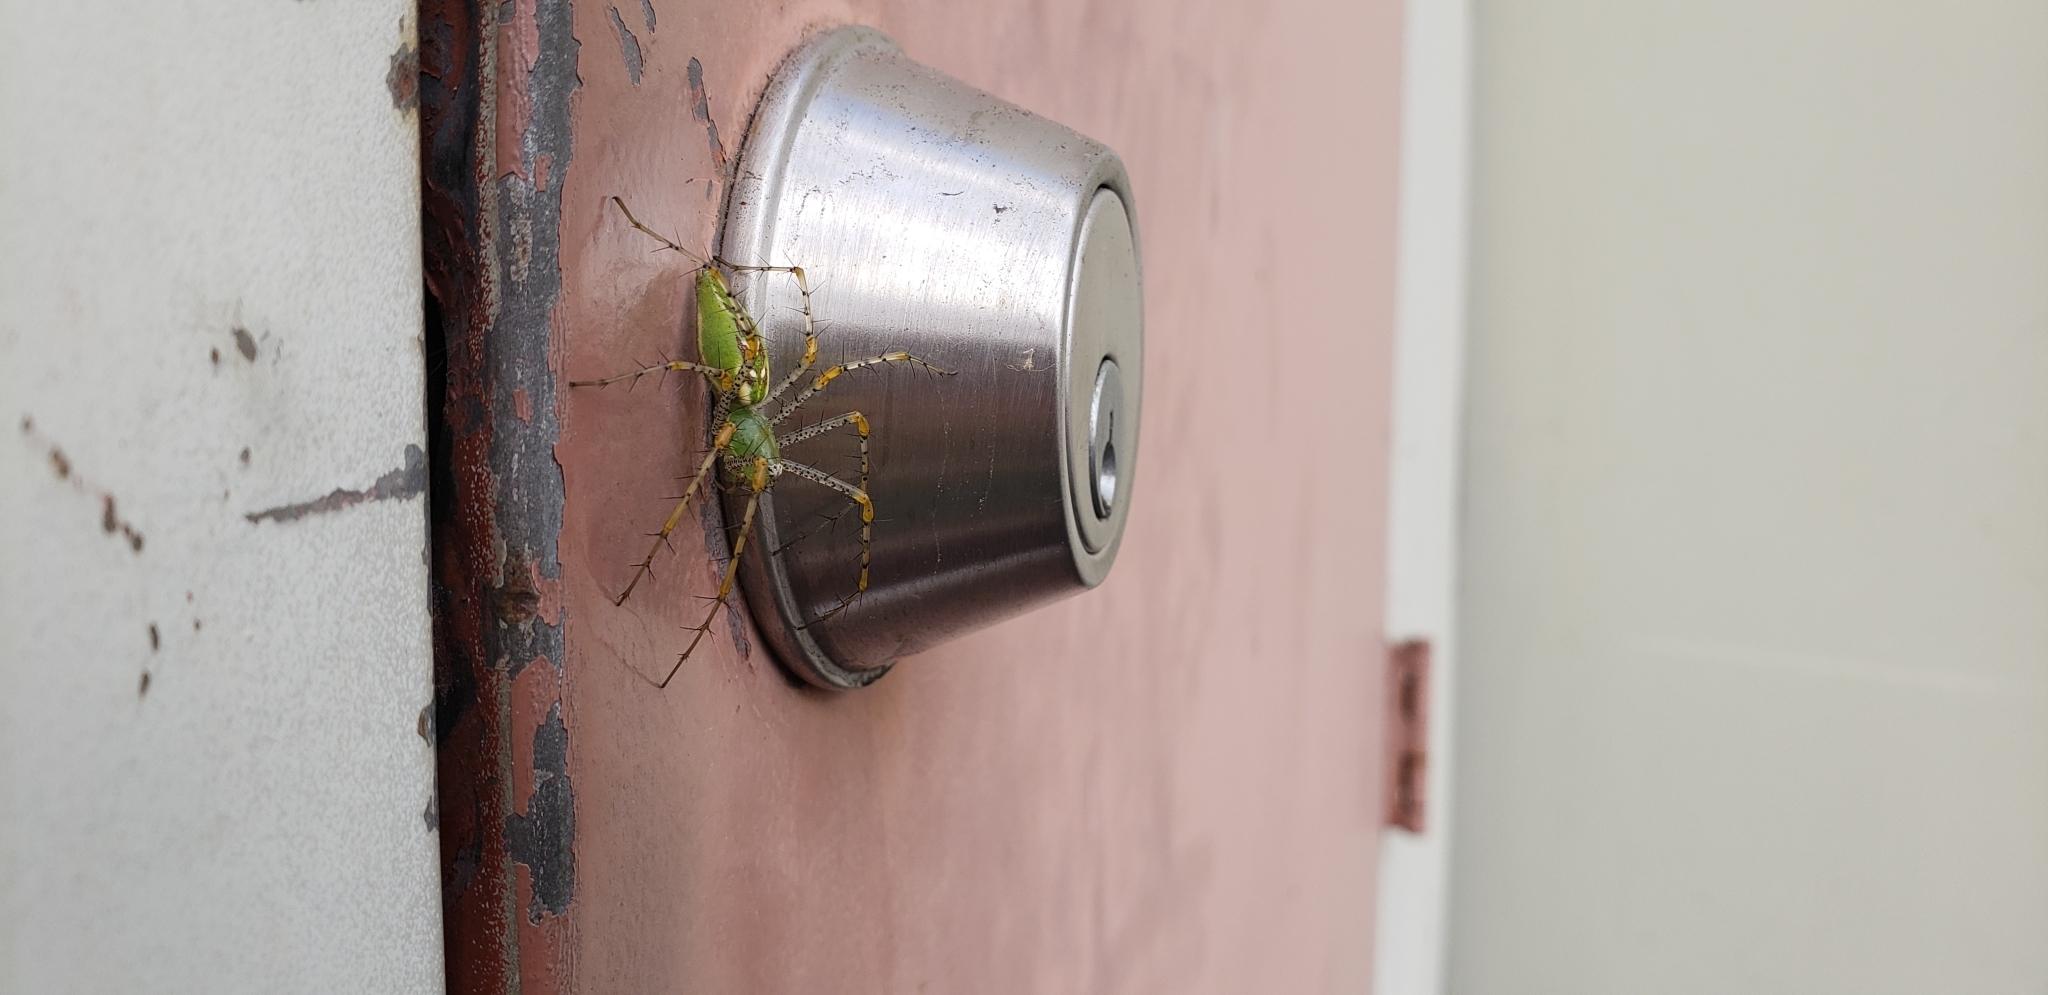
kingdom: Animalia
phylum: Arthropoda
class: Arachnida
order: Araneae
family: Oxyopidae
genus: Peucetia
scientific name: Peucetia viridans
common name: Lynx spiders
